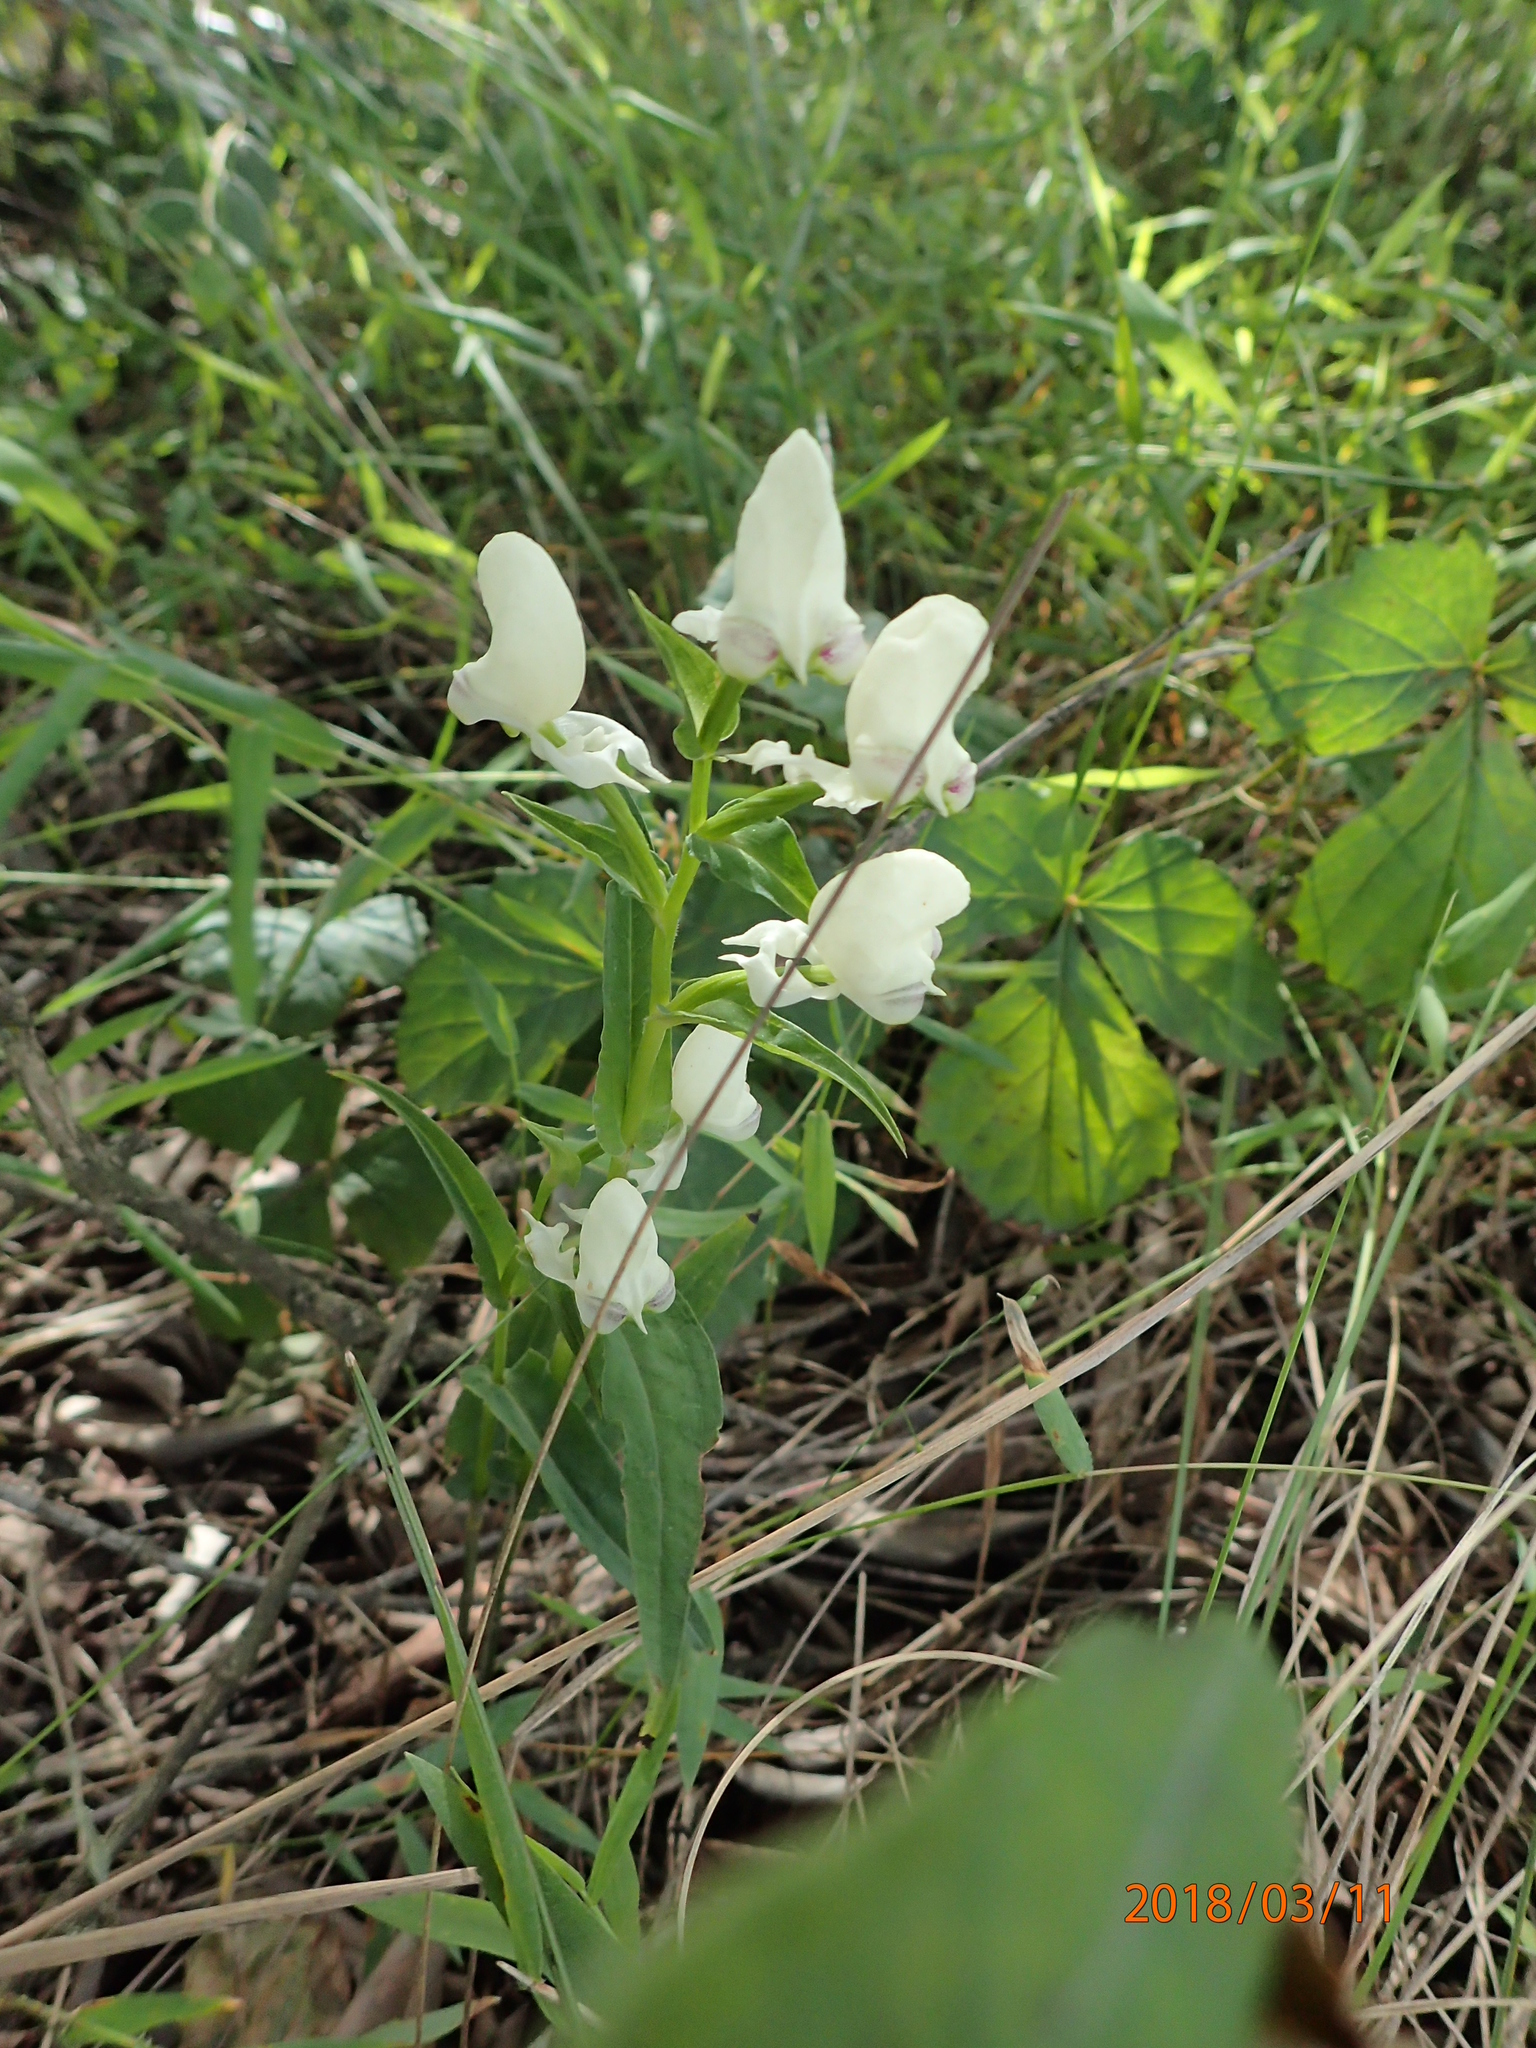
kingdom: Plantae
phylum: Tracheophyta
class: Liliopsida
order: Asparagales
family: Orchidaceae
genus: Disperis
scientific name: Disperis fanniniae
